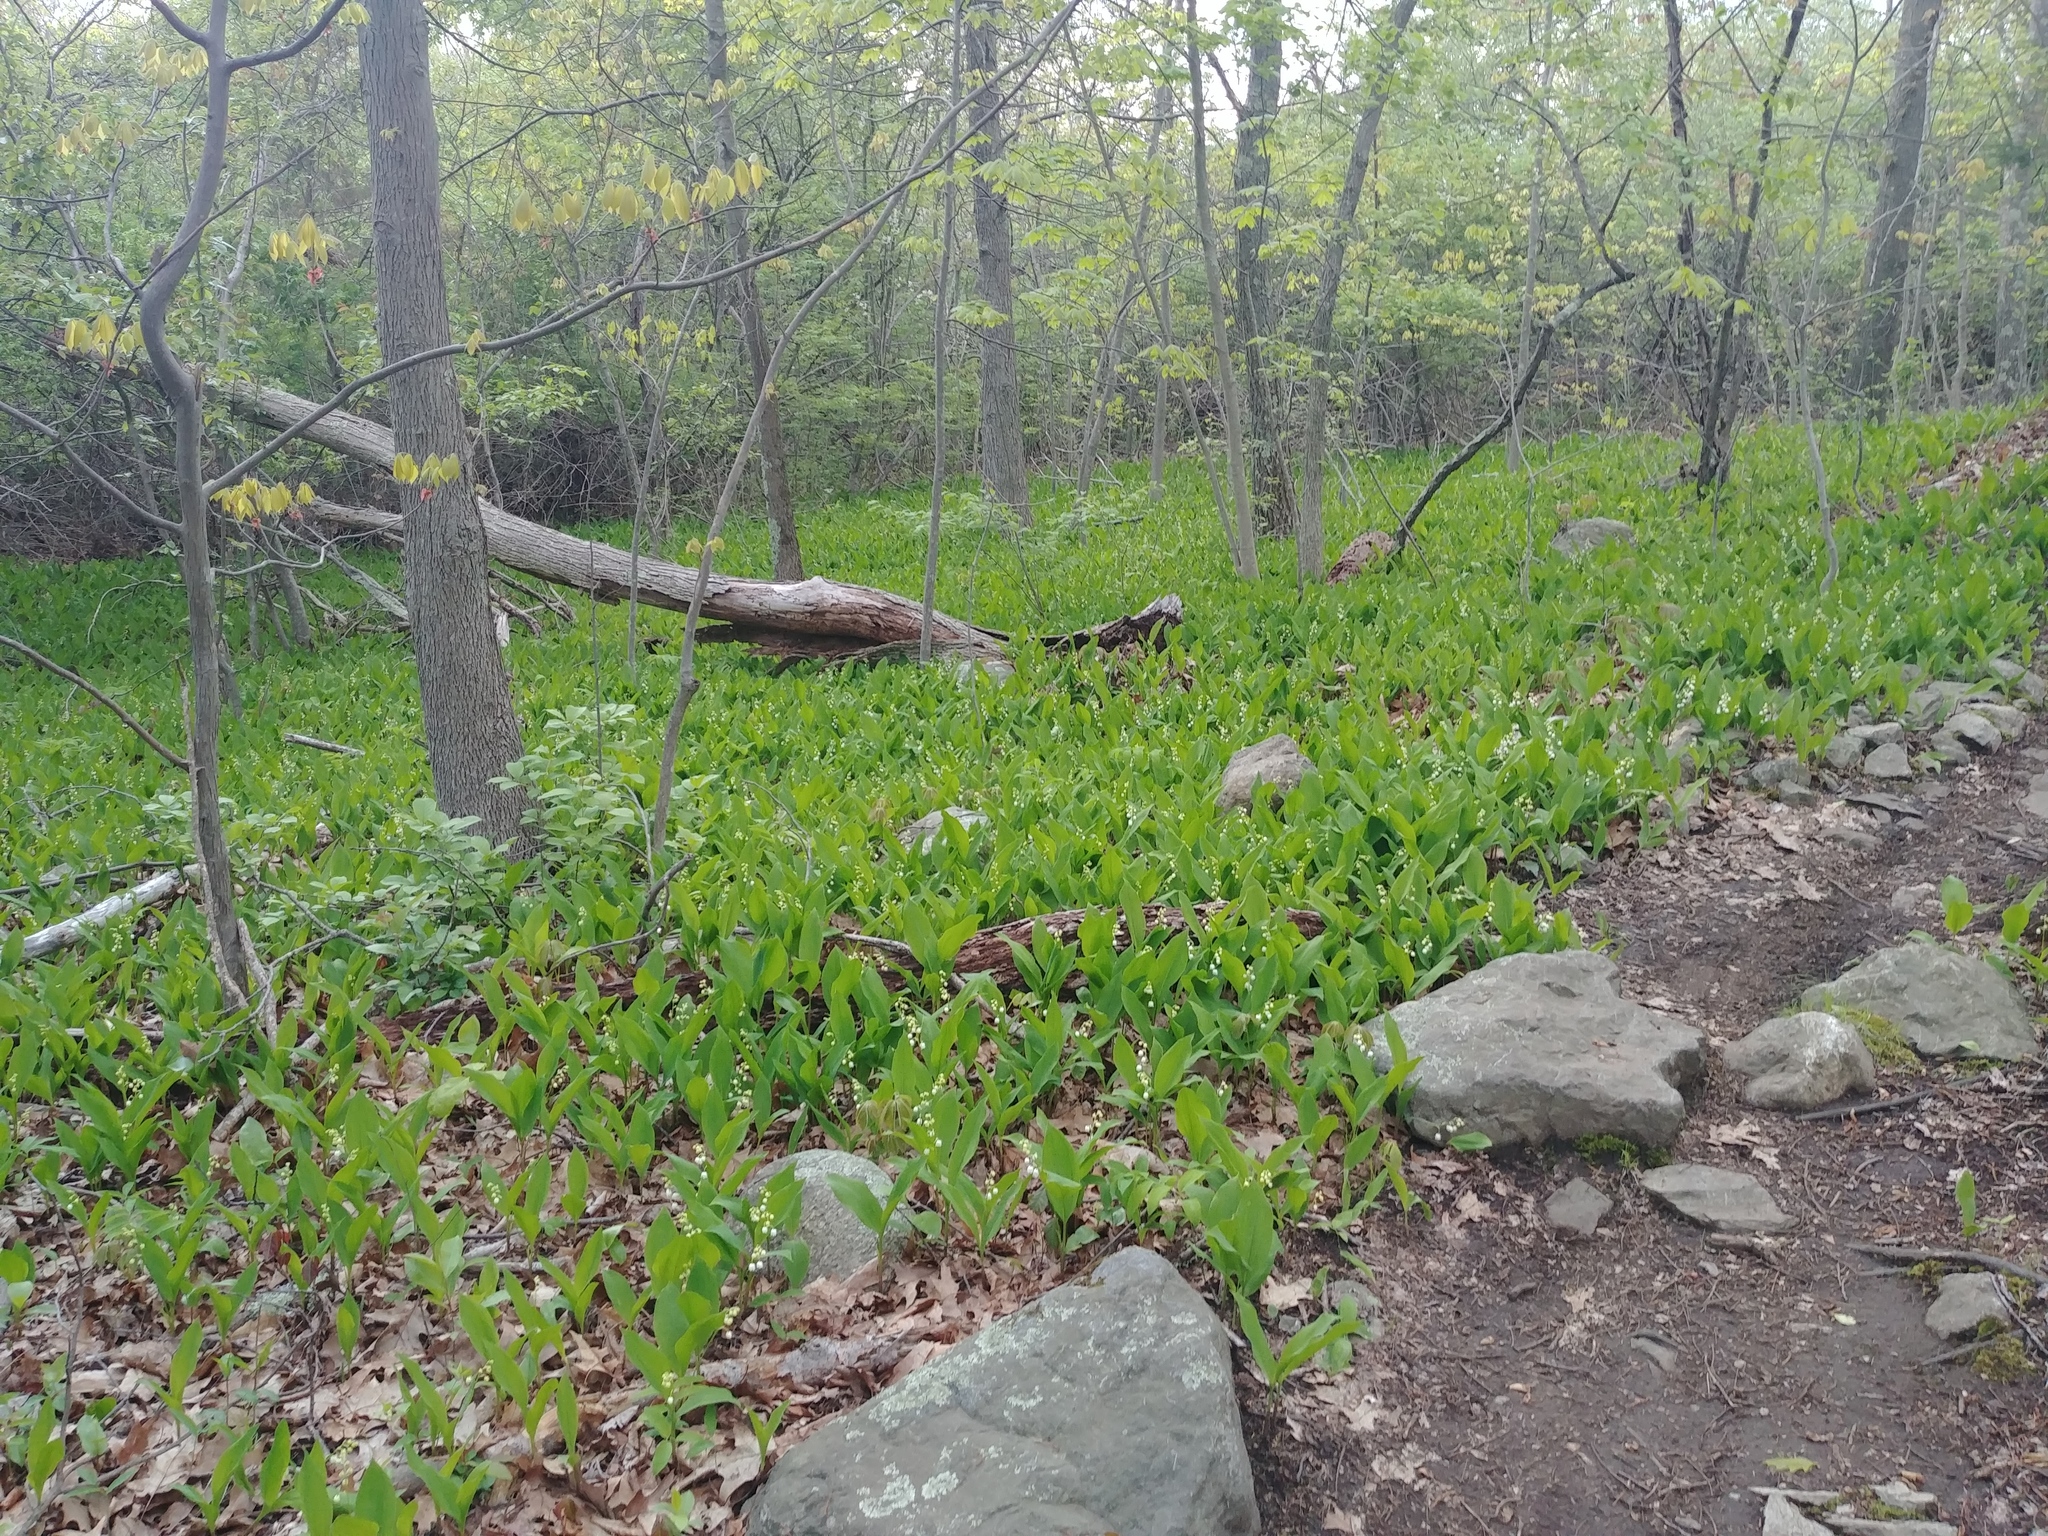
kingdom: Plantae
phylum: Tracheophyta
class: Liliopsida
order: Asparagales
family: Asparagaceae
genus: Convallaria
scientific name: Convallaria majalis
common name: Lily-of-the-valley
